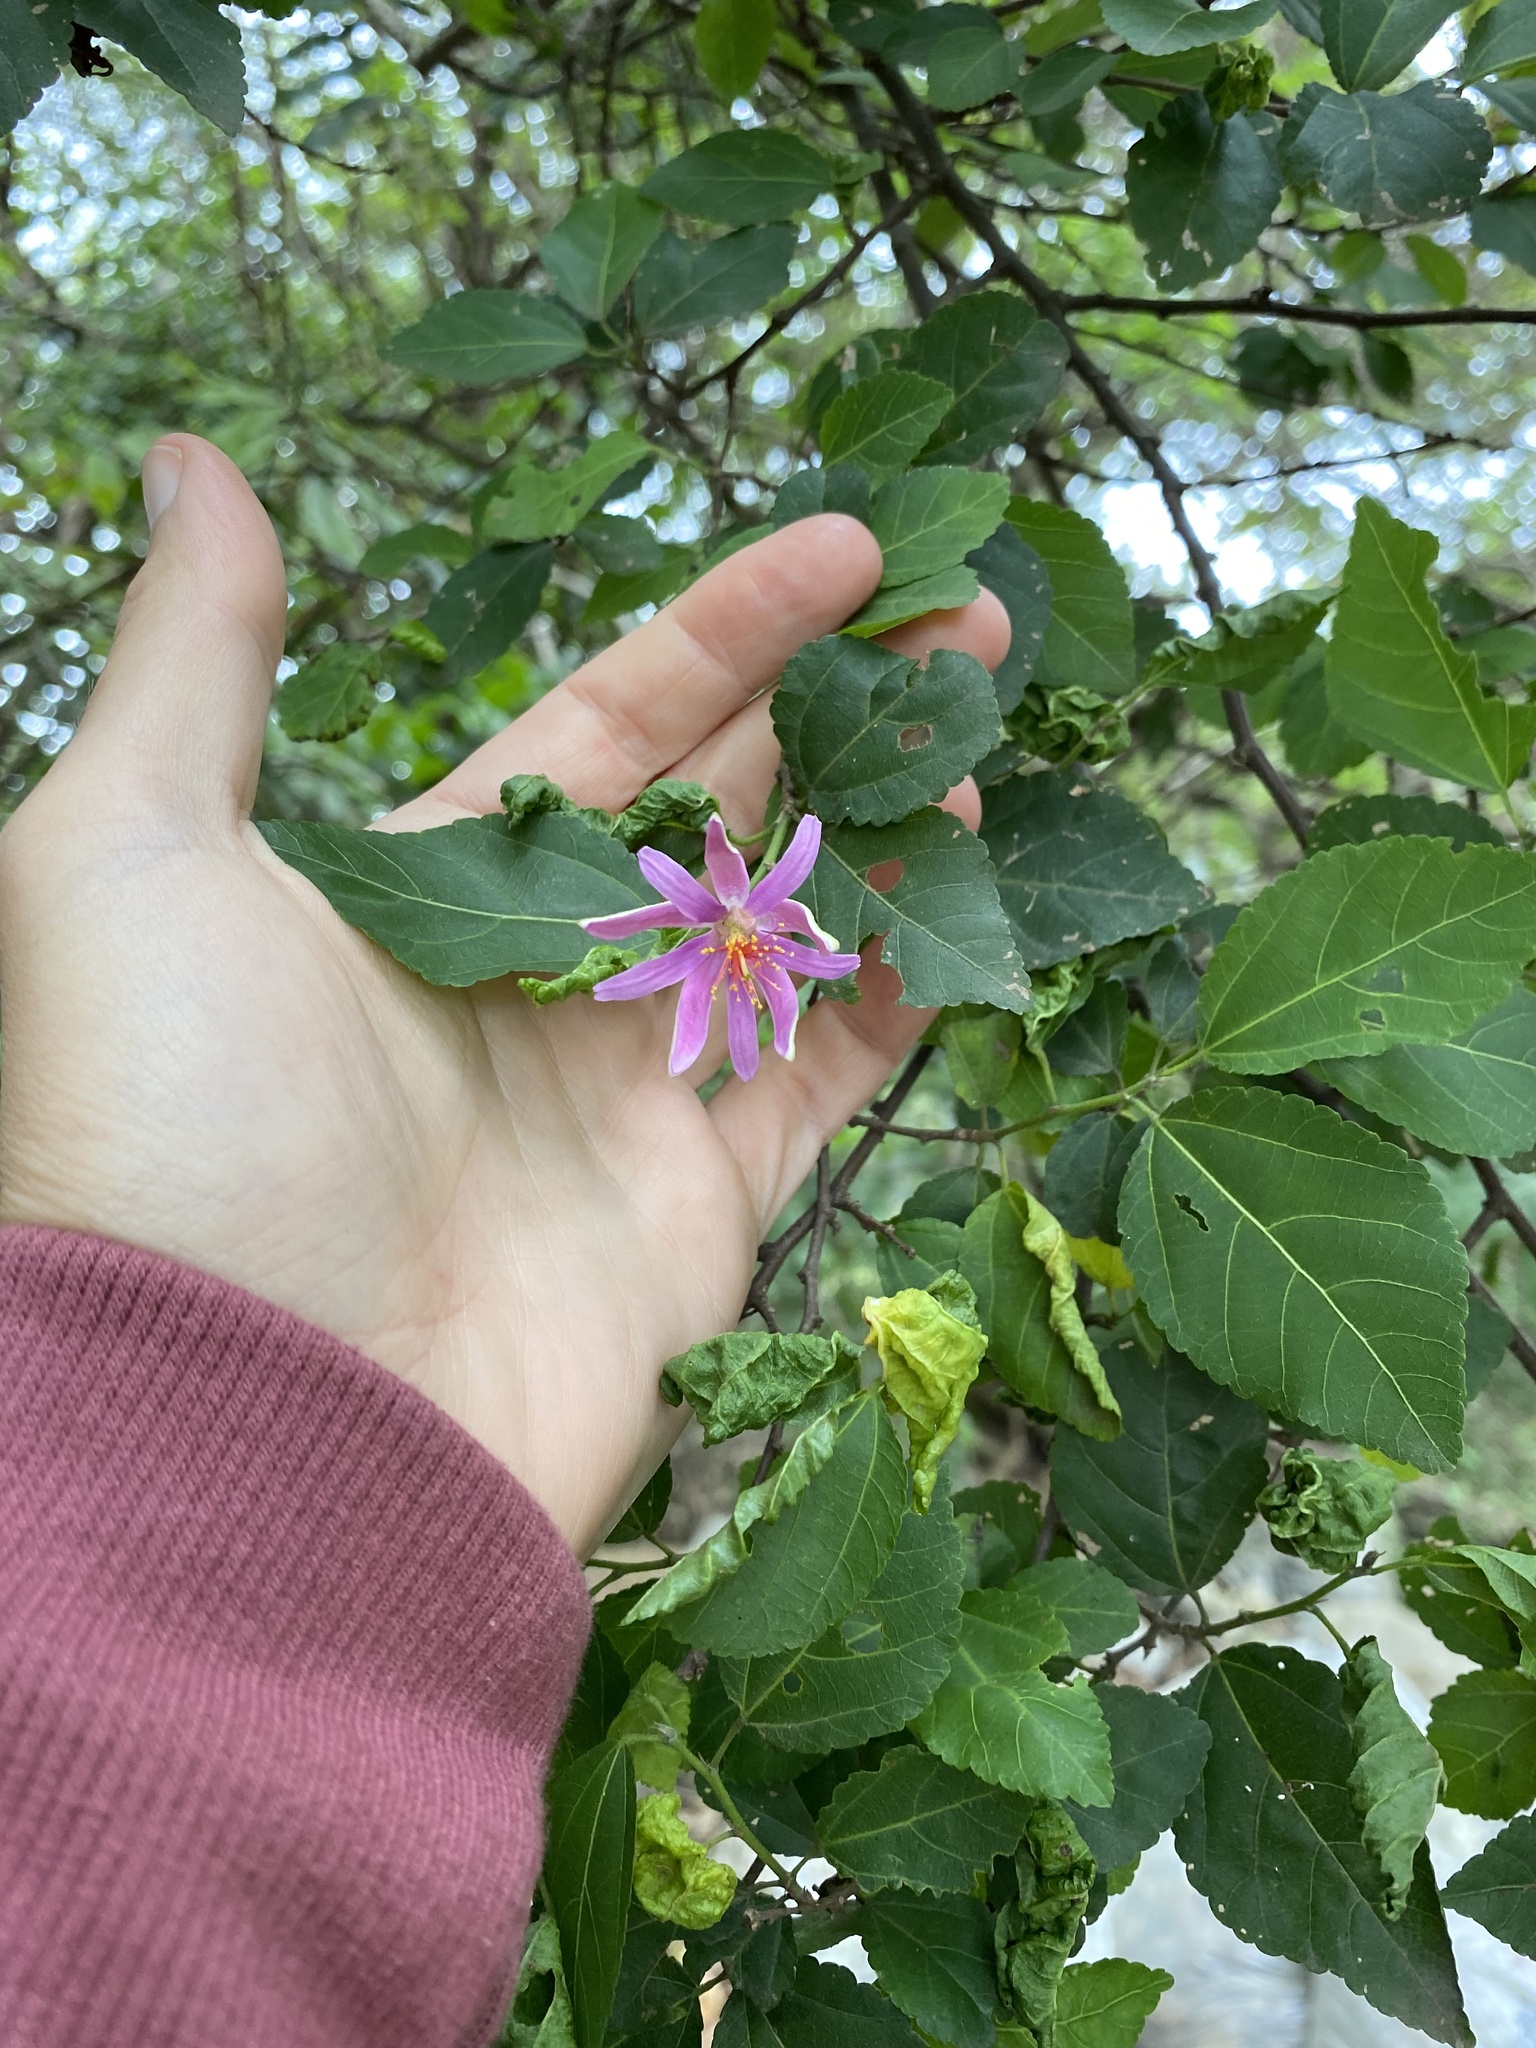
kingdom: Plantae
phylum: Tracheophyta
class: Magnoliopsida
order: Malvales
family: Malvaceae
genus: Grewia
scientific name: Grewia occidentalis
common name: Crossberry
